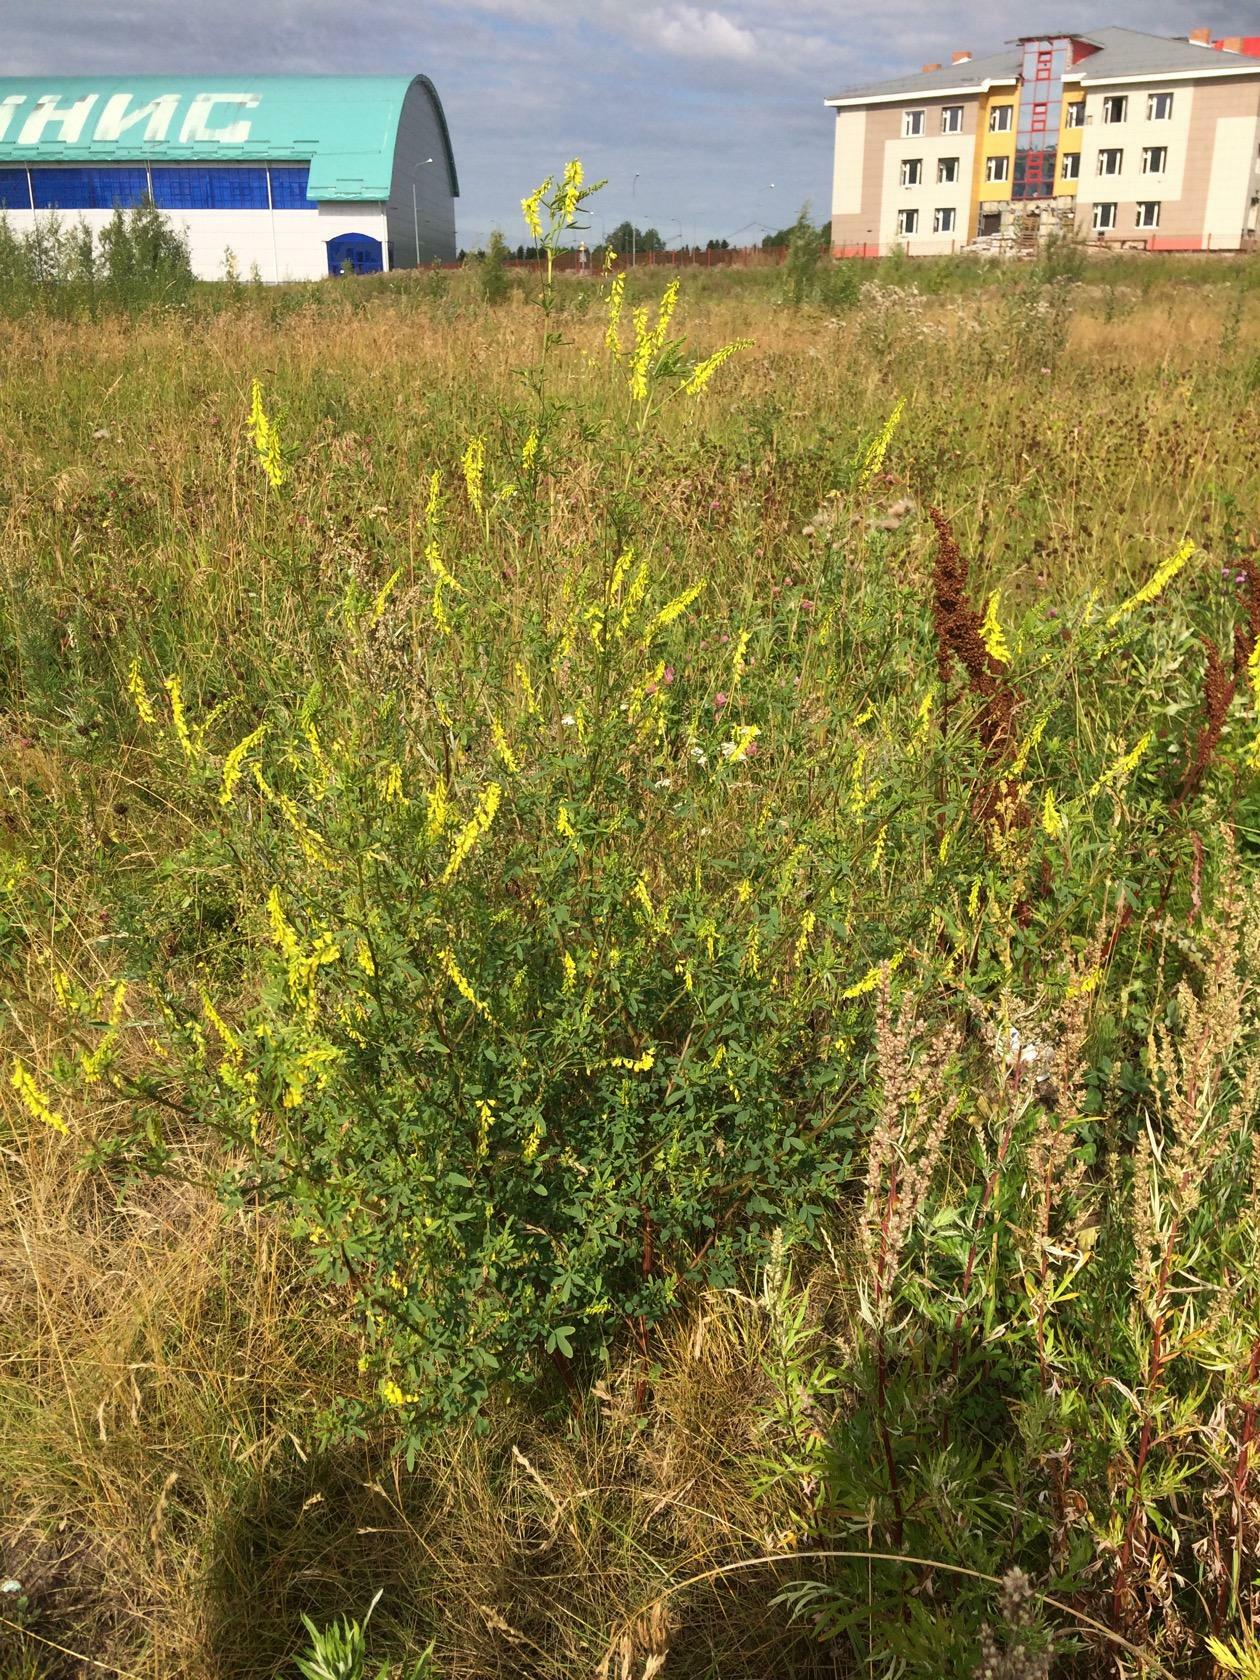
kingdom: Plantae
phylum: Tracheophyta
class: Magnoliopsida
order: Fabales
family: Fabaceae
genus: Melilotus
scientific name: Melilotus officinalis
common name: Sweetclover
